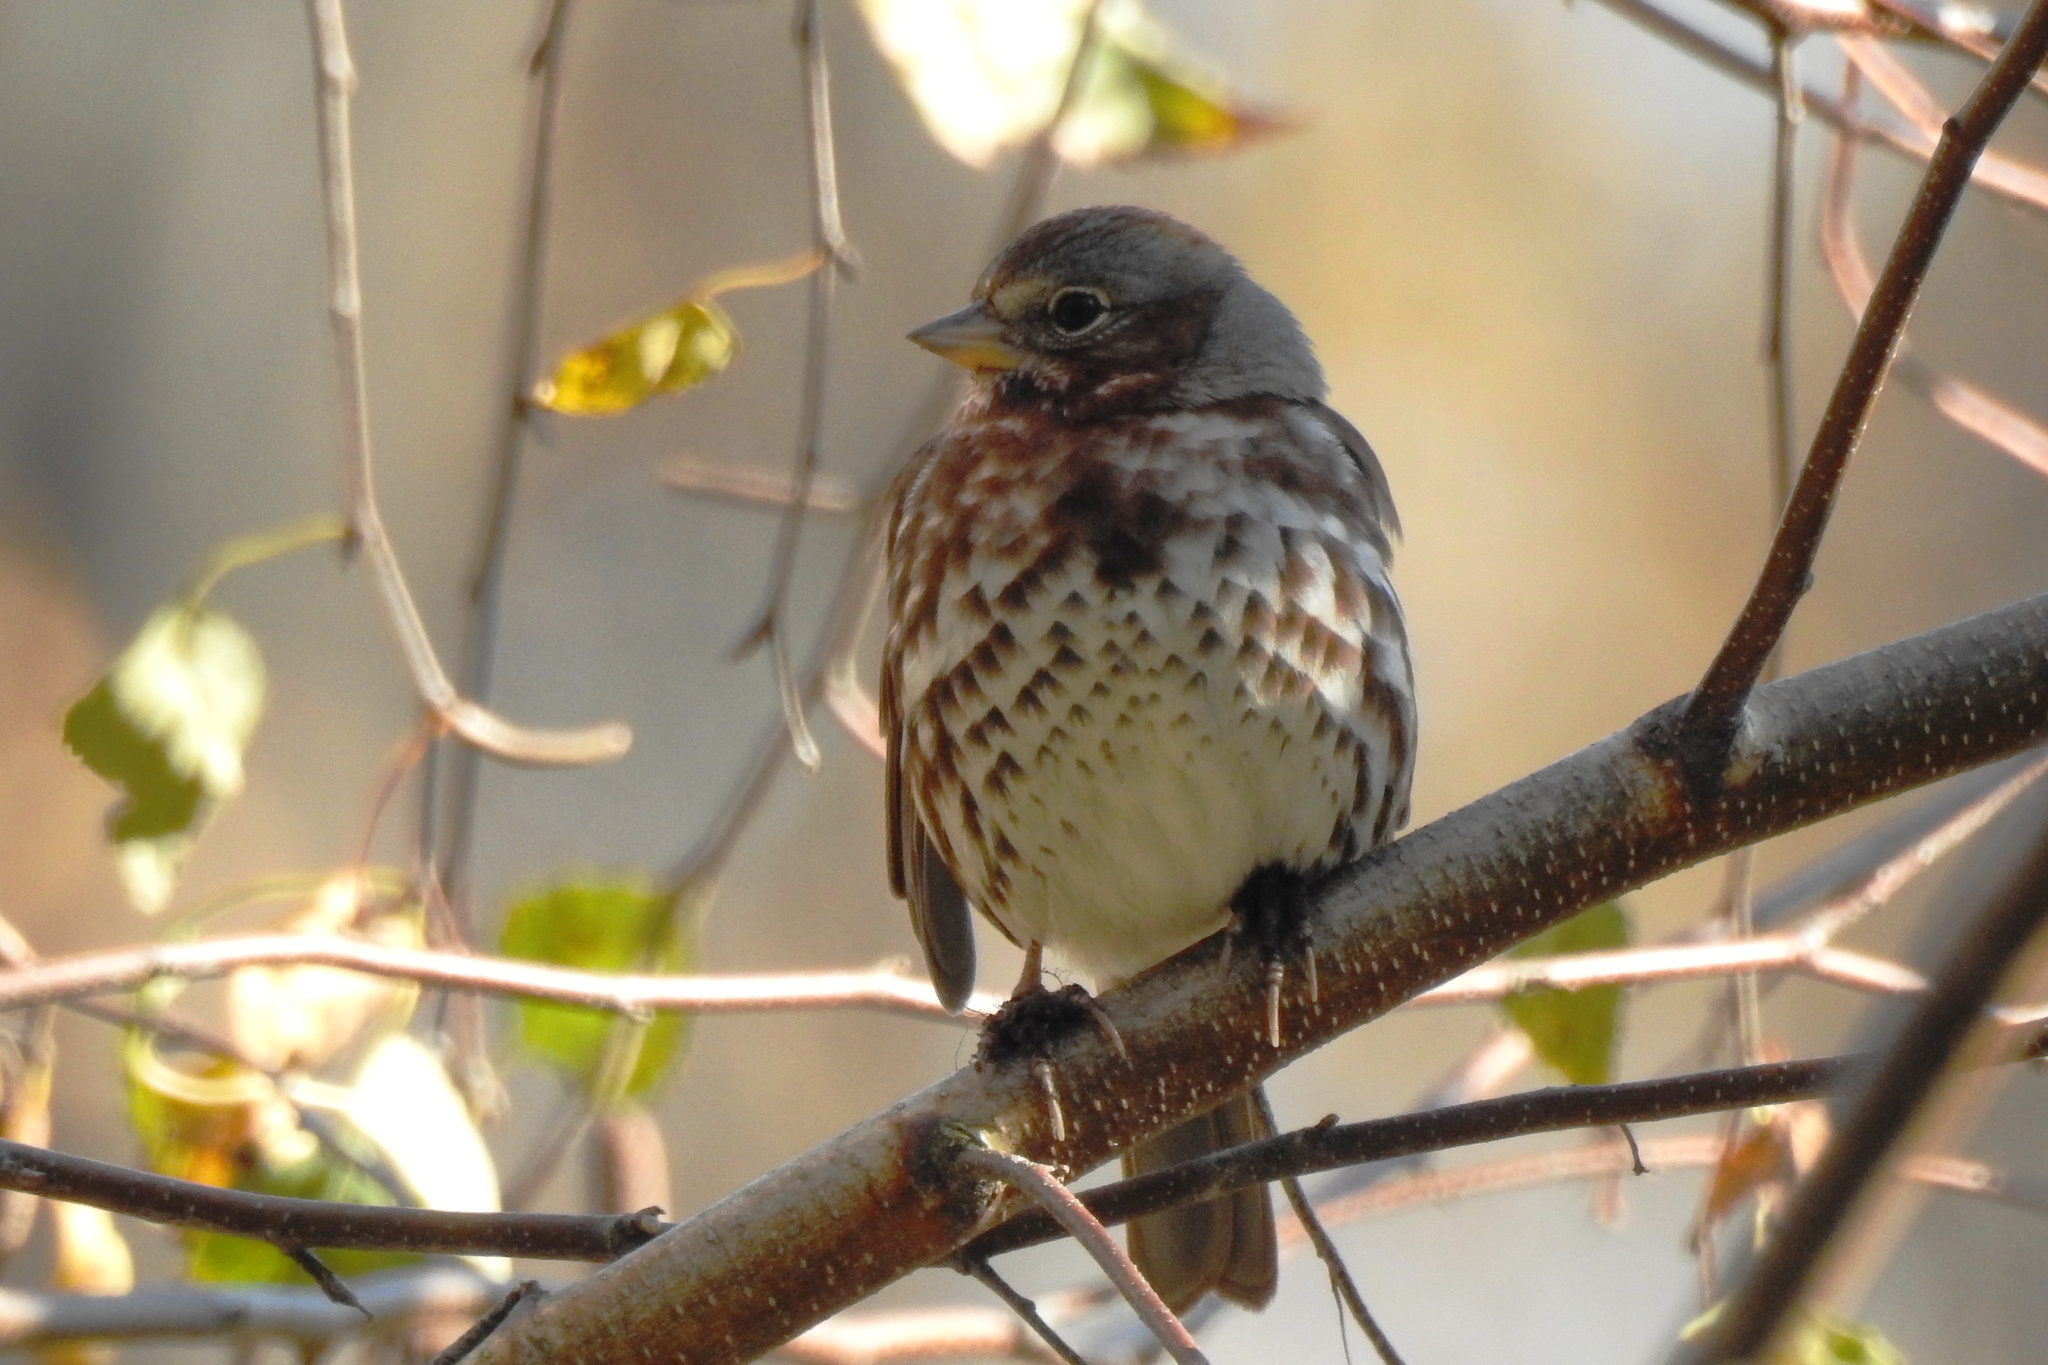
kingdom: Animalia
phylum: Chordata
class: Aves
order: Passeriformes
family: Passerellidae
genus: Passerella
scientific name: Passerella iliaca
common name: Fox sparrow
